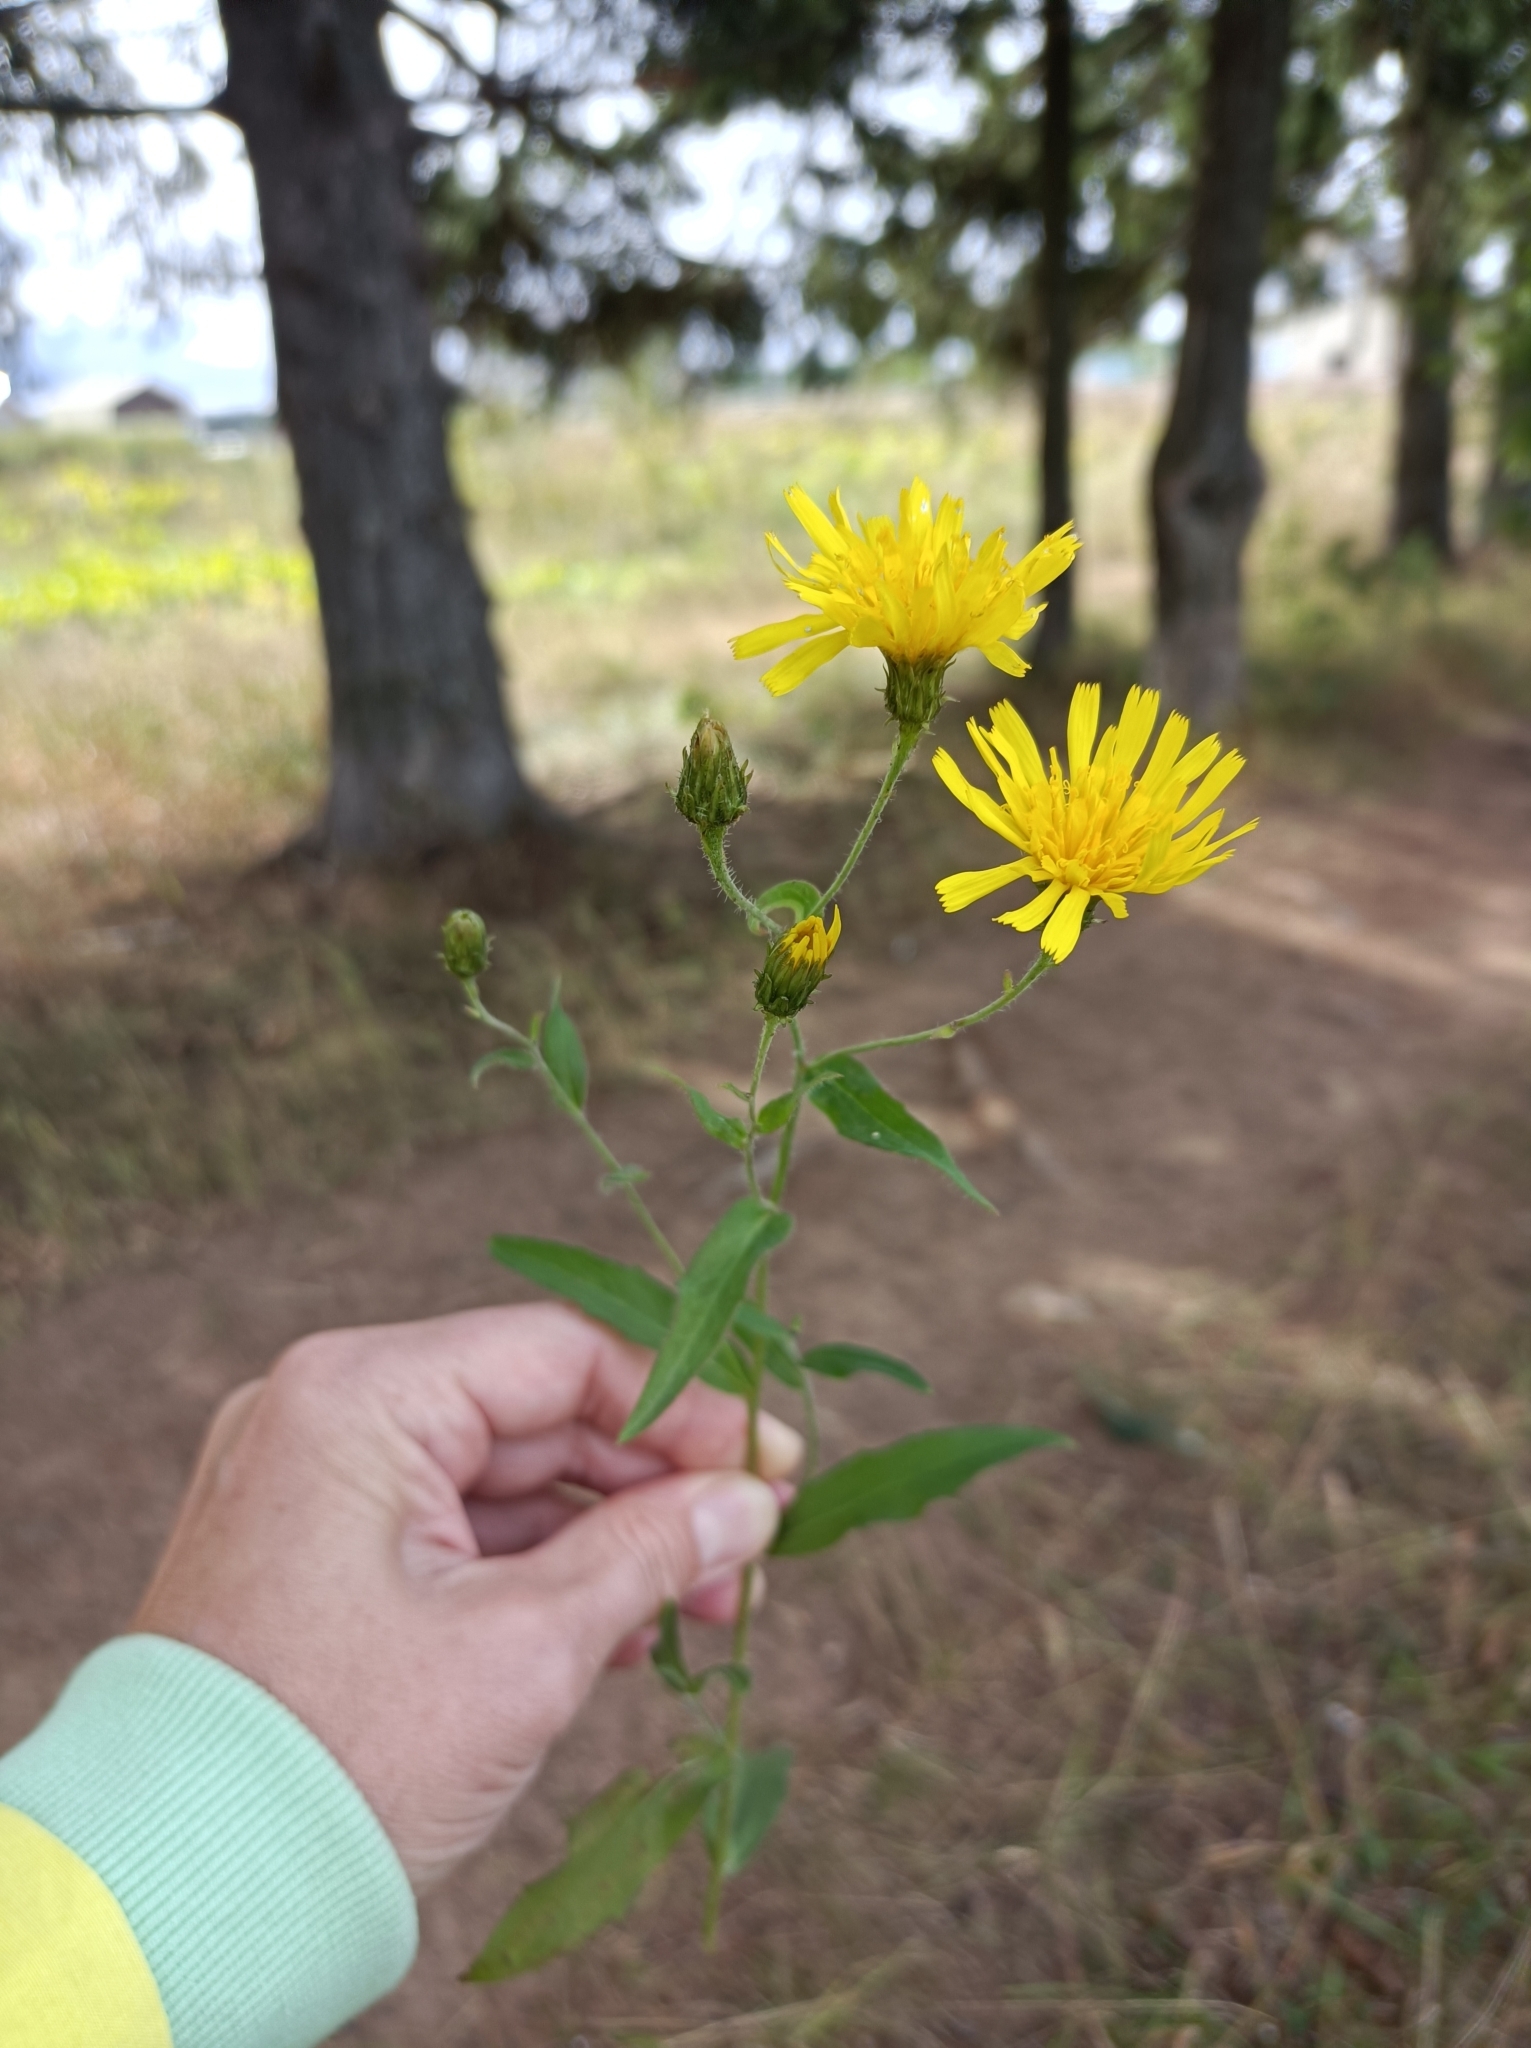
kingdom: Plantae
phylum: Tracheophyta
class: Magnoliopsida
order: Asterales
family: Asteraceae
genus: Hieracium
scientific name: Hieracium umbellatum
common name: Northern hawkweed
